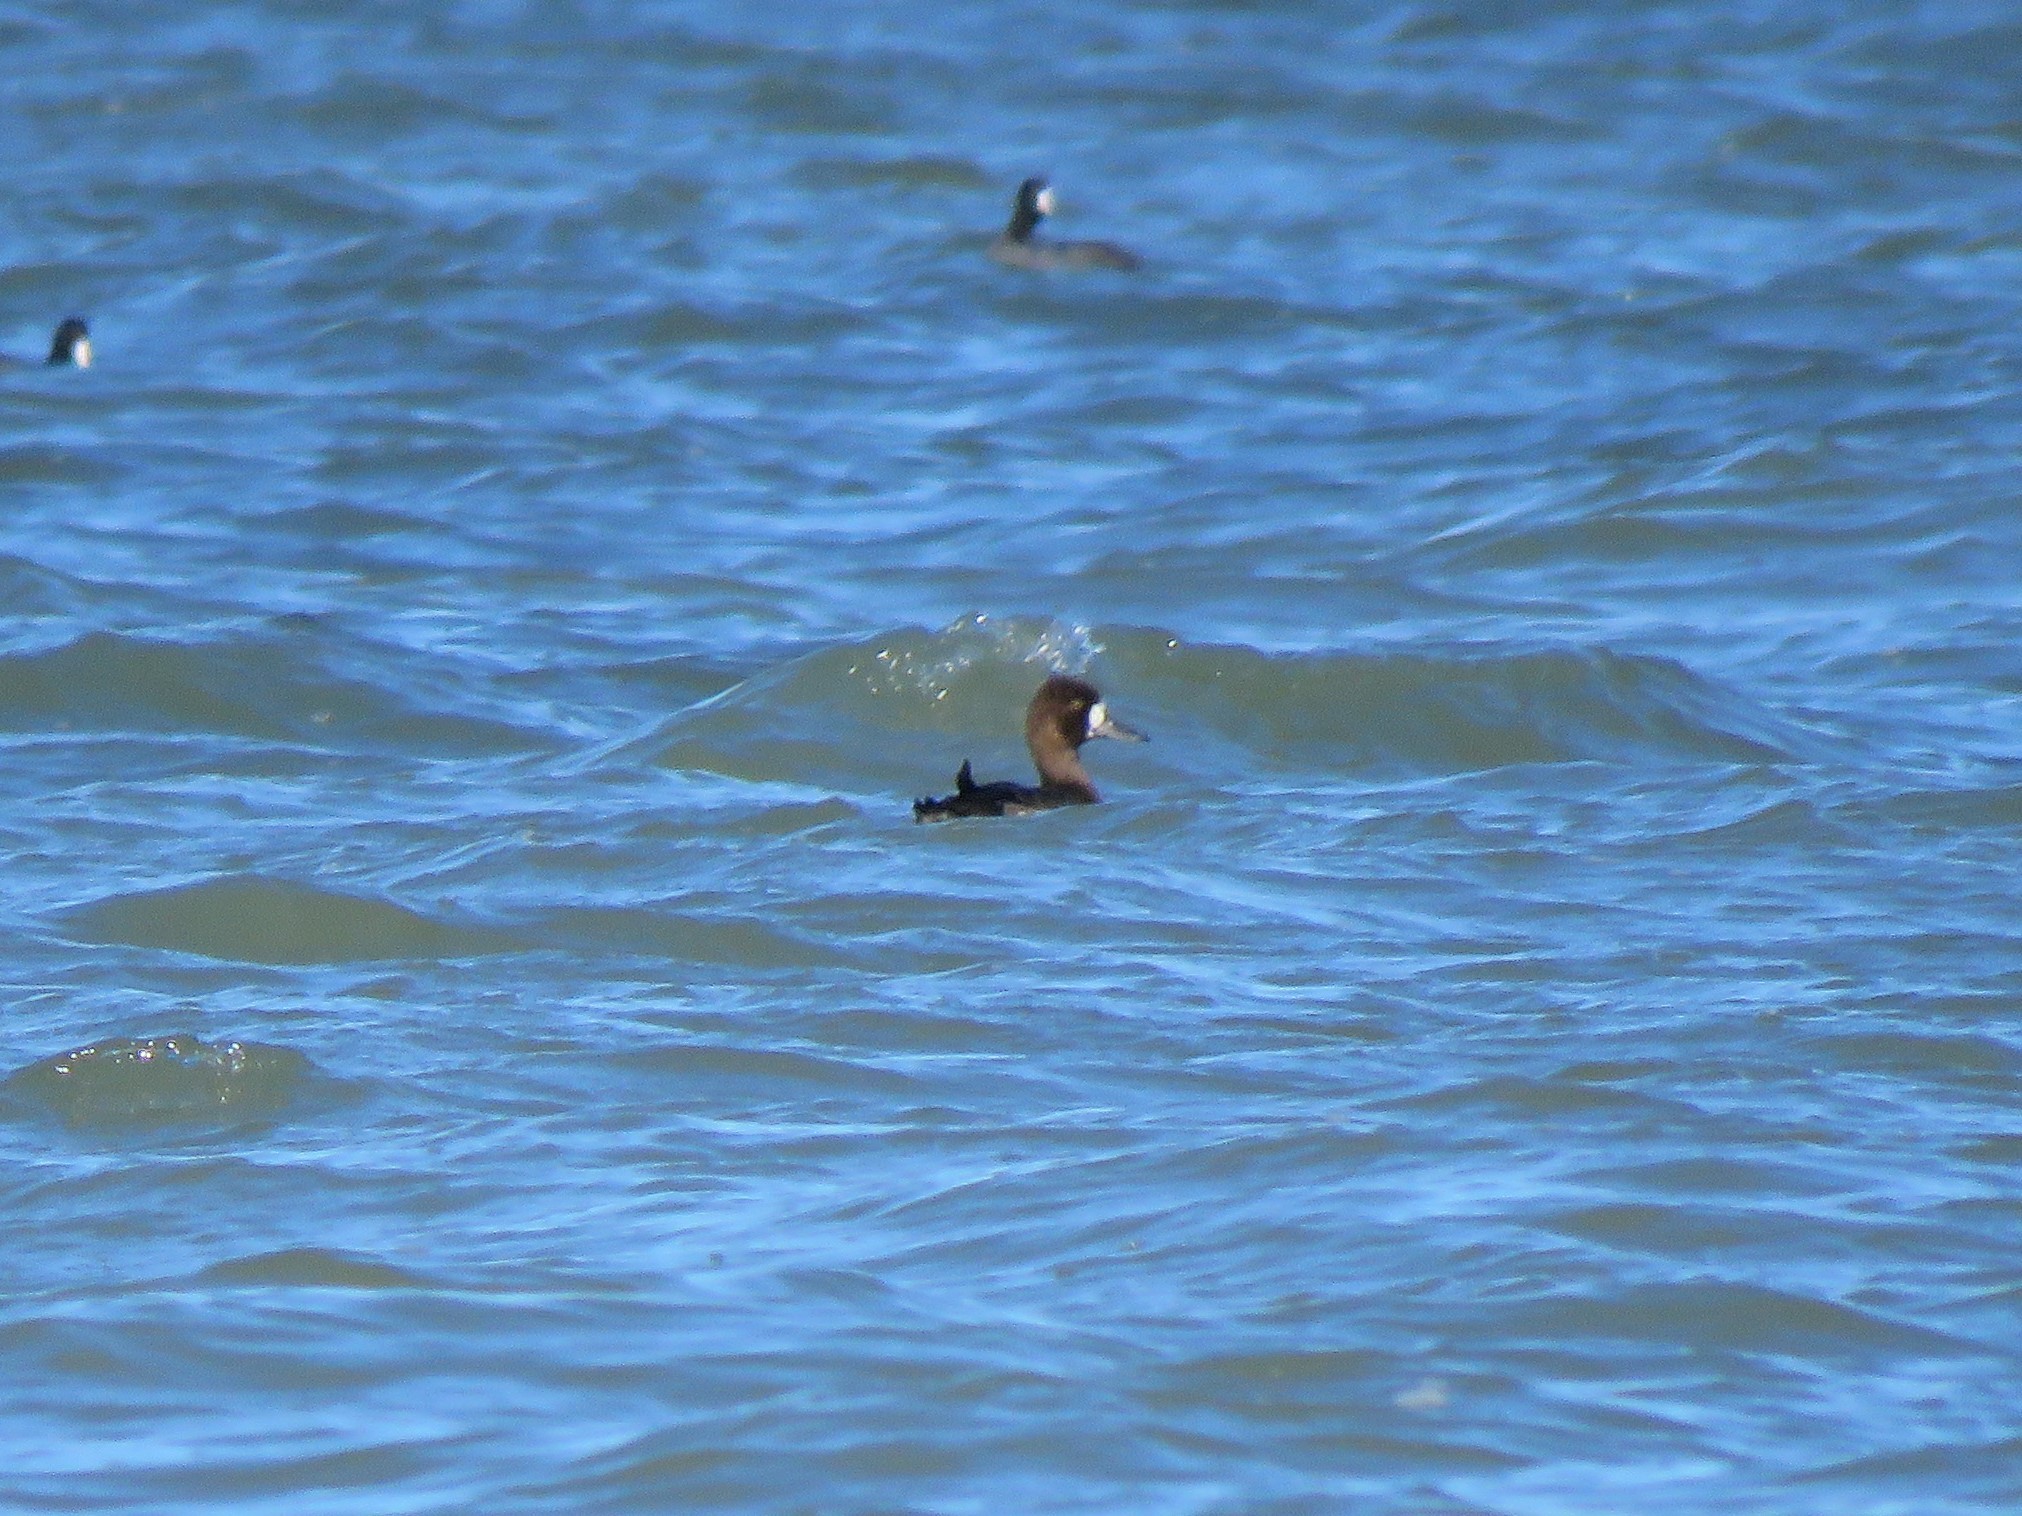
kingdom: Animalia
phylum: Chordata
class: Aves
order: Anseriformes
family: Anatidae
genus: Aythya
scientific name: Aythya affinis
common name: Lesser scaup
